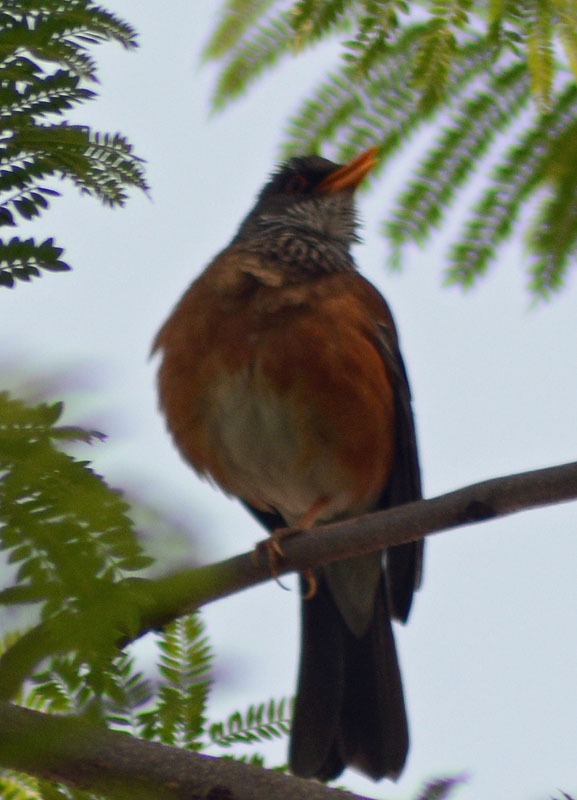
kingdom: Animalia
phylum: Chordata
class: Aves
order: Passeriformes
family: Turdidae
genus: Turdus
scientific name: Turdus rufopalliatus
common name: Rufous-backed robin
